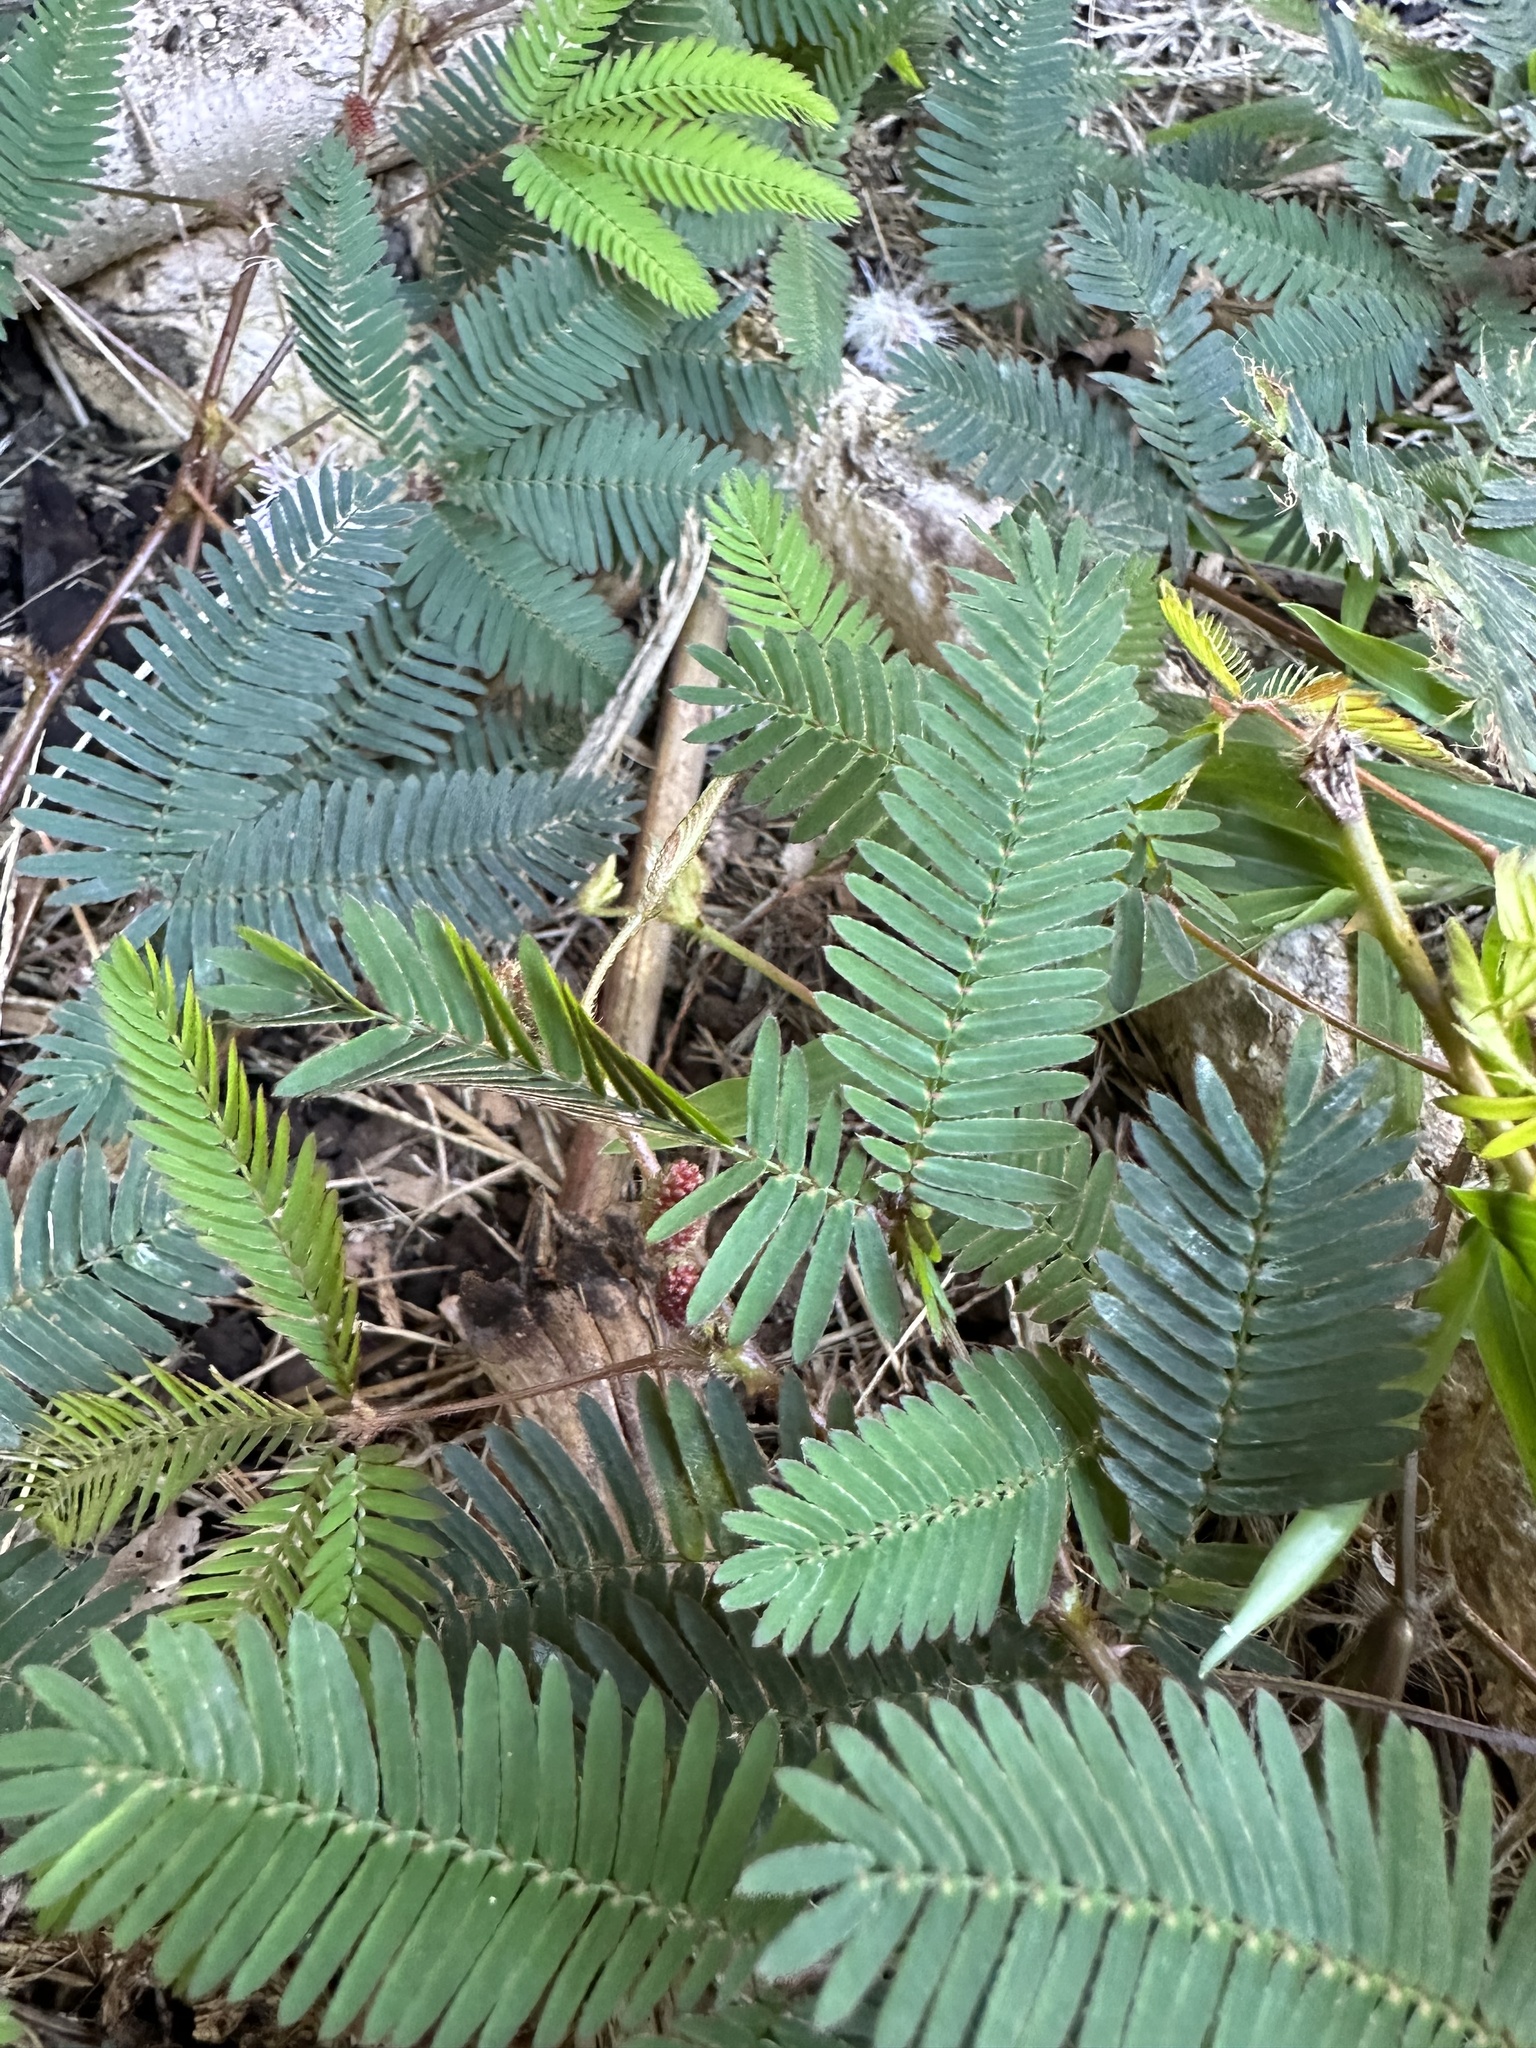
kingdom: Plantae
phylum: Tracheophyta
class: Magnoliopsida
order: Fabales
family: Fabaceae
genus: Mimosa
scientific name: Mimosa pudica
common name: Sensitive plant
